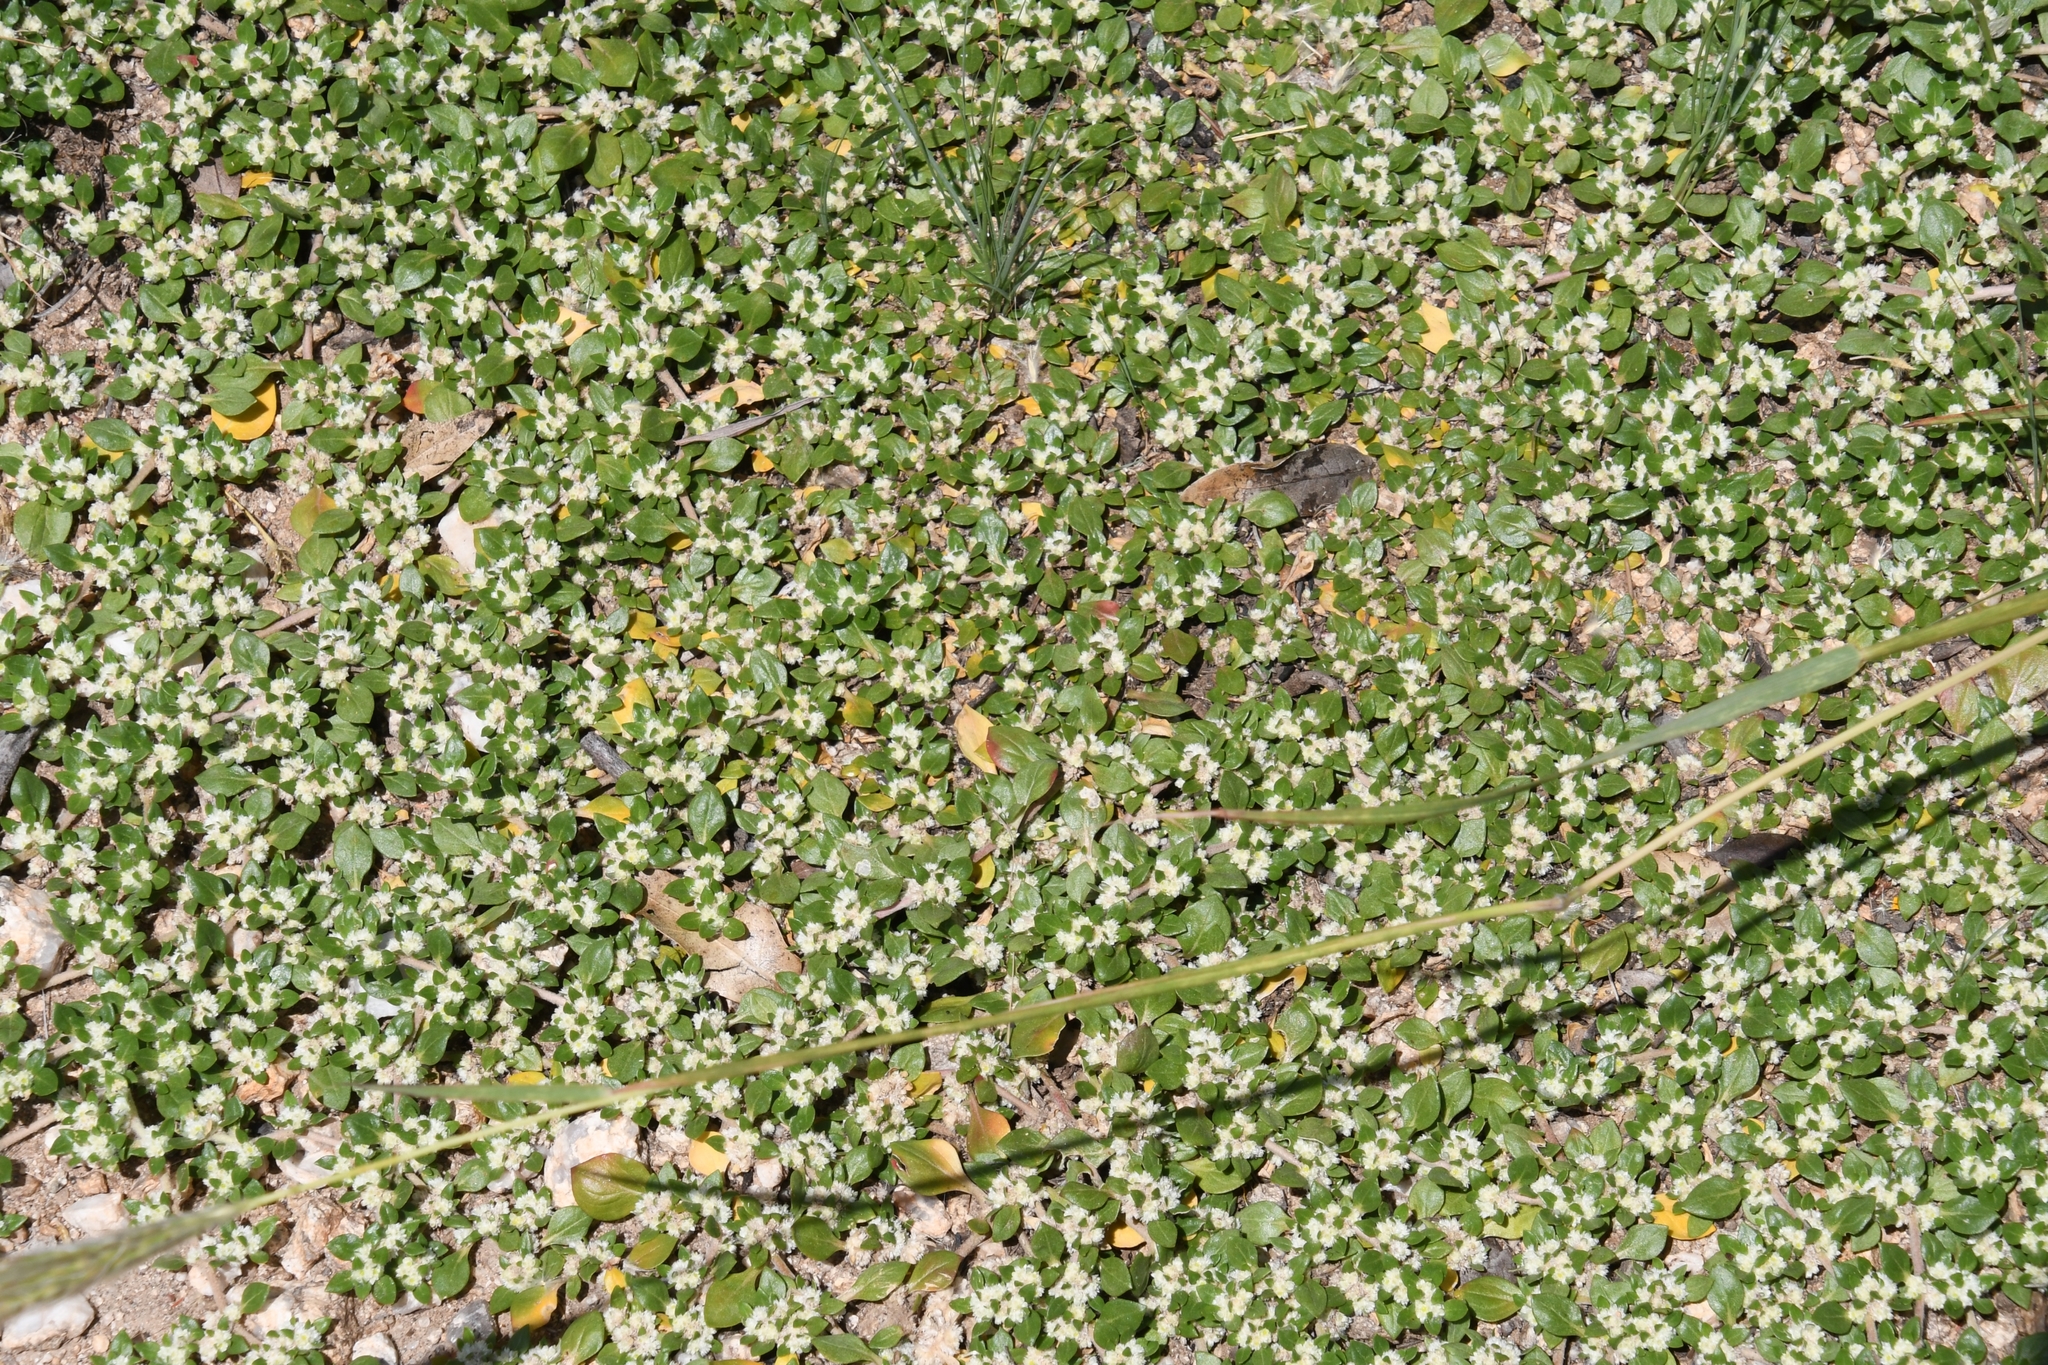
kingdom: Plantae
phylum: Tracheophyta
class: Magnoliopsida
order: Caryophyllales
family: Amaranthaceae
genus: Guilleminea
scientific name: Guilleminea densa
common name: Small matweed
